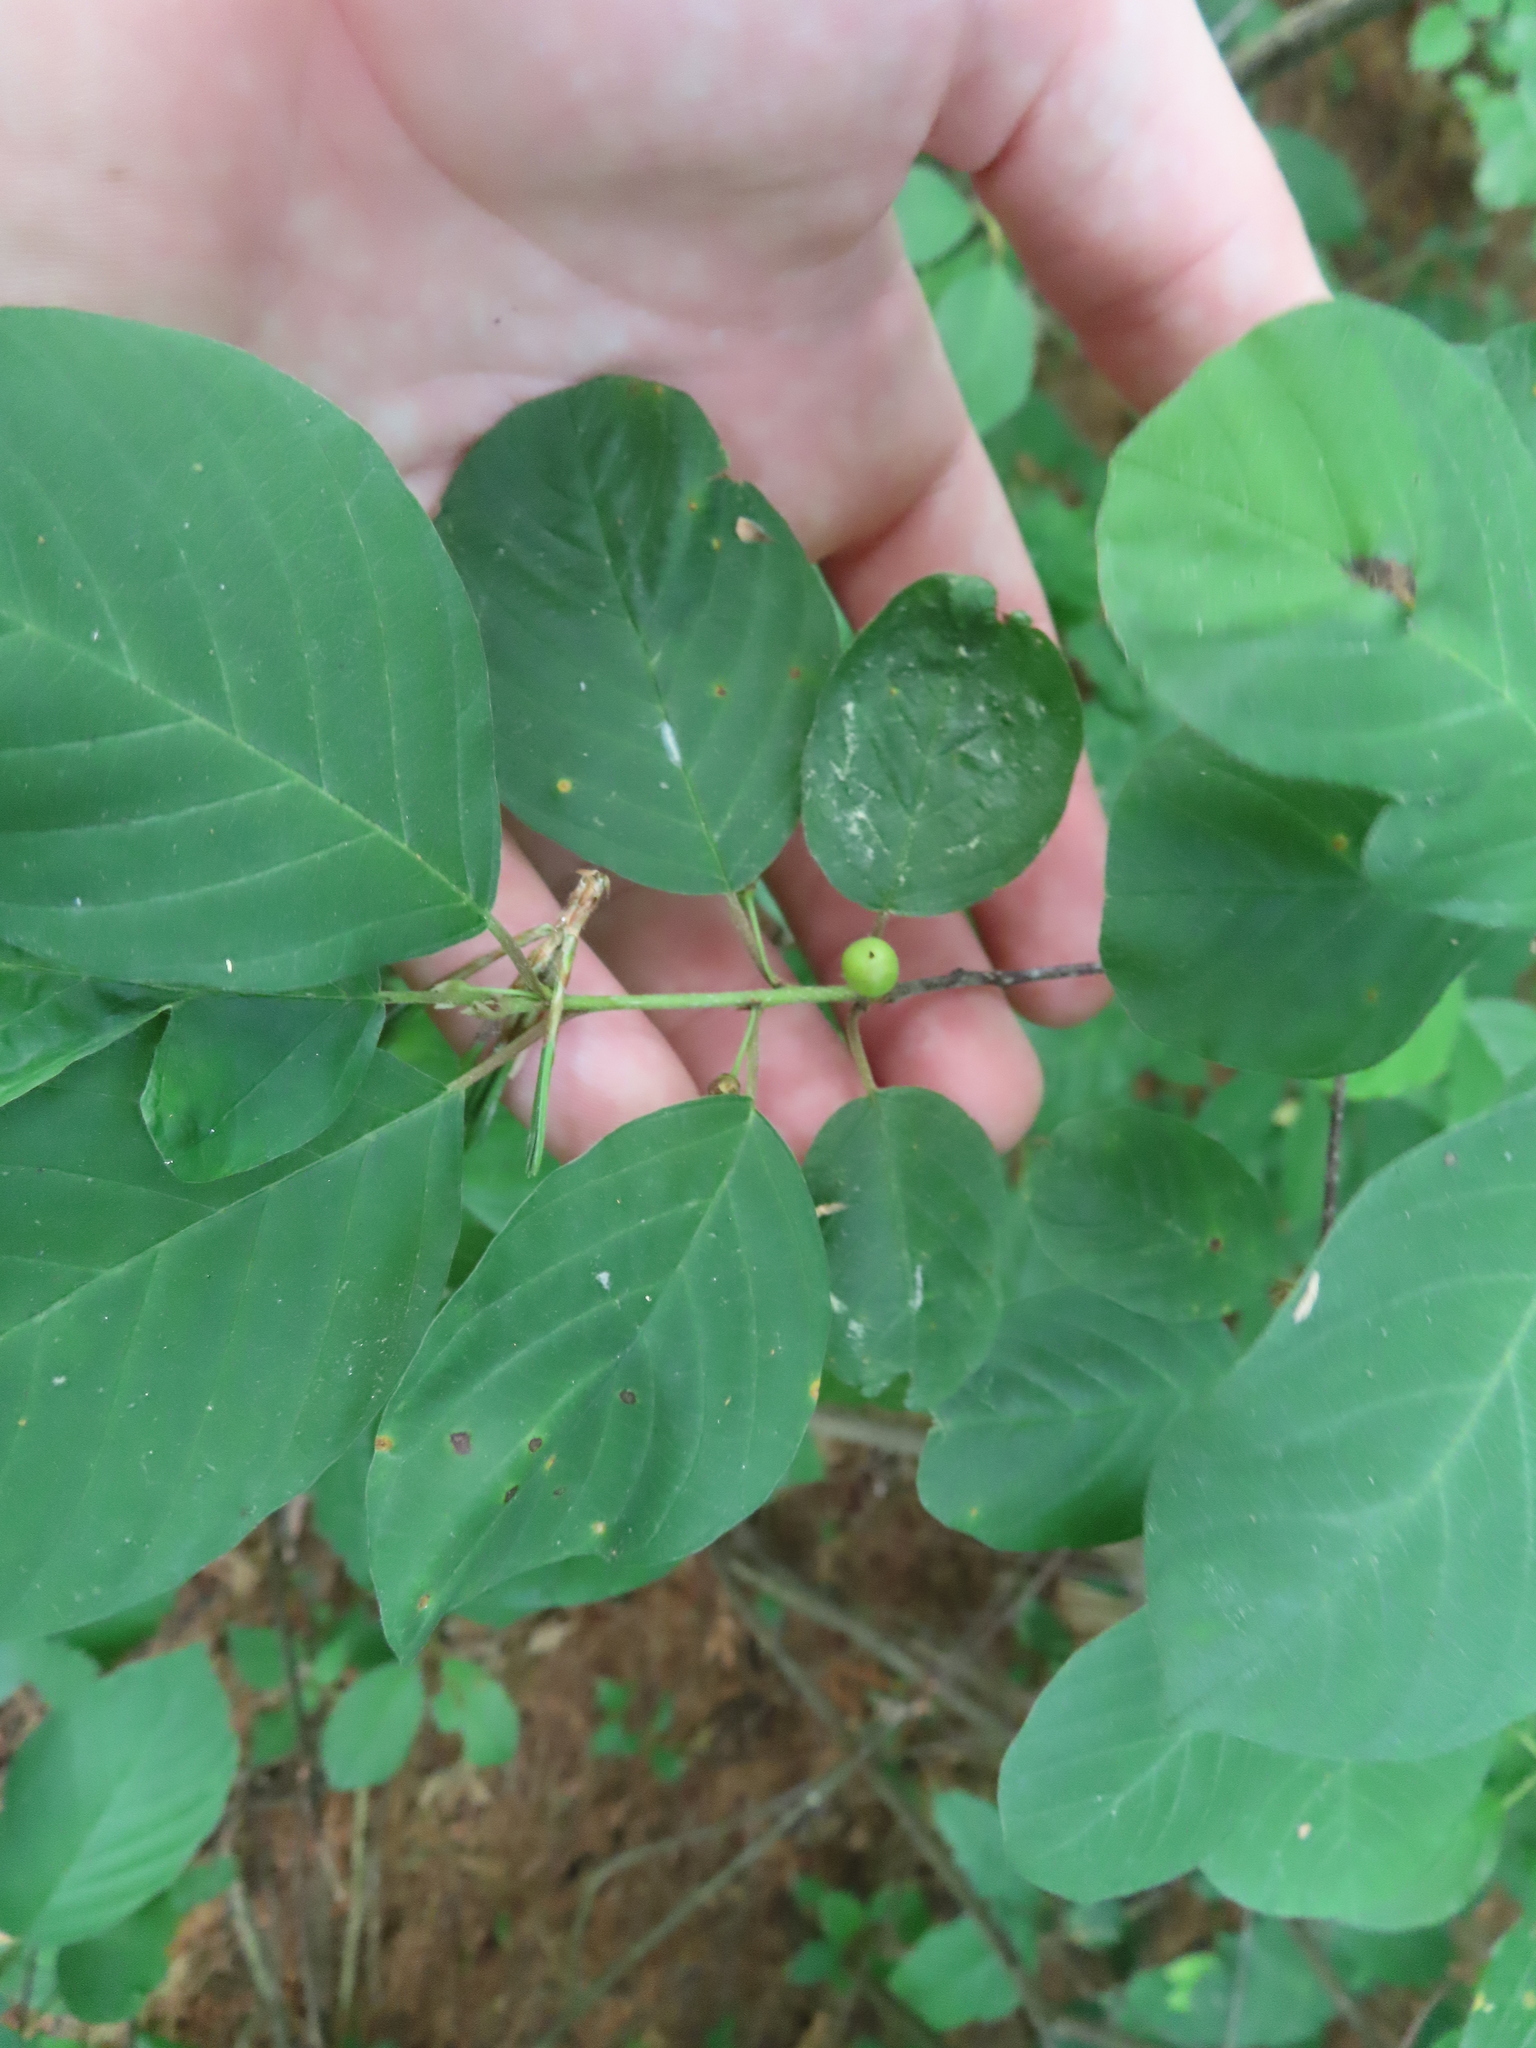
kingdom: Plantae
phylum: Tracheophyta
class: Magnoliopsida
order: Rosales
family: Rhamnaceae
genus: Frangula
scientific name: Frangula alnus
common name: Alder buckthorn
